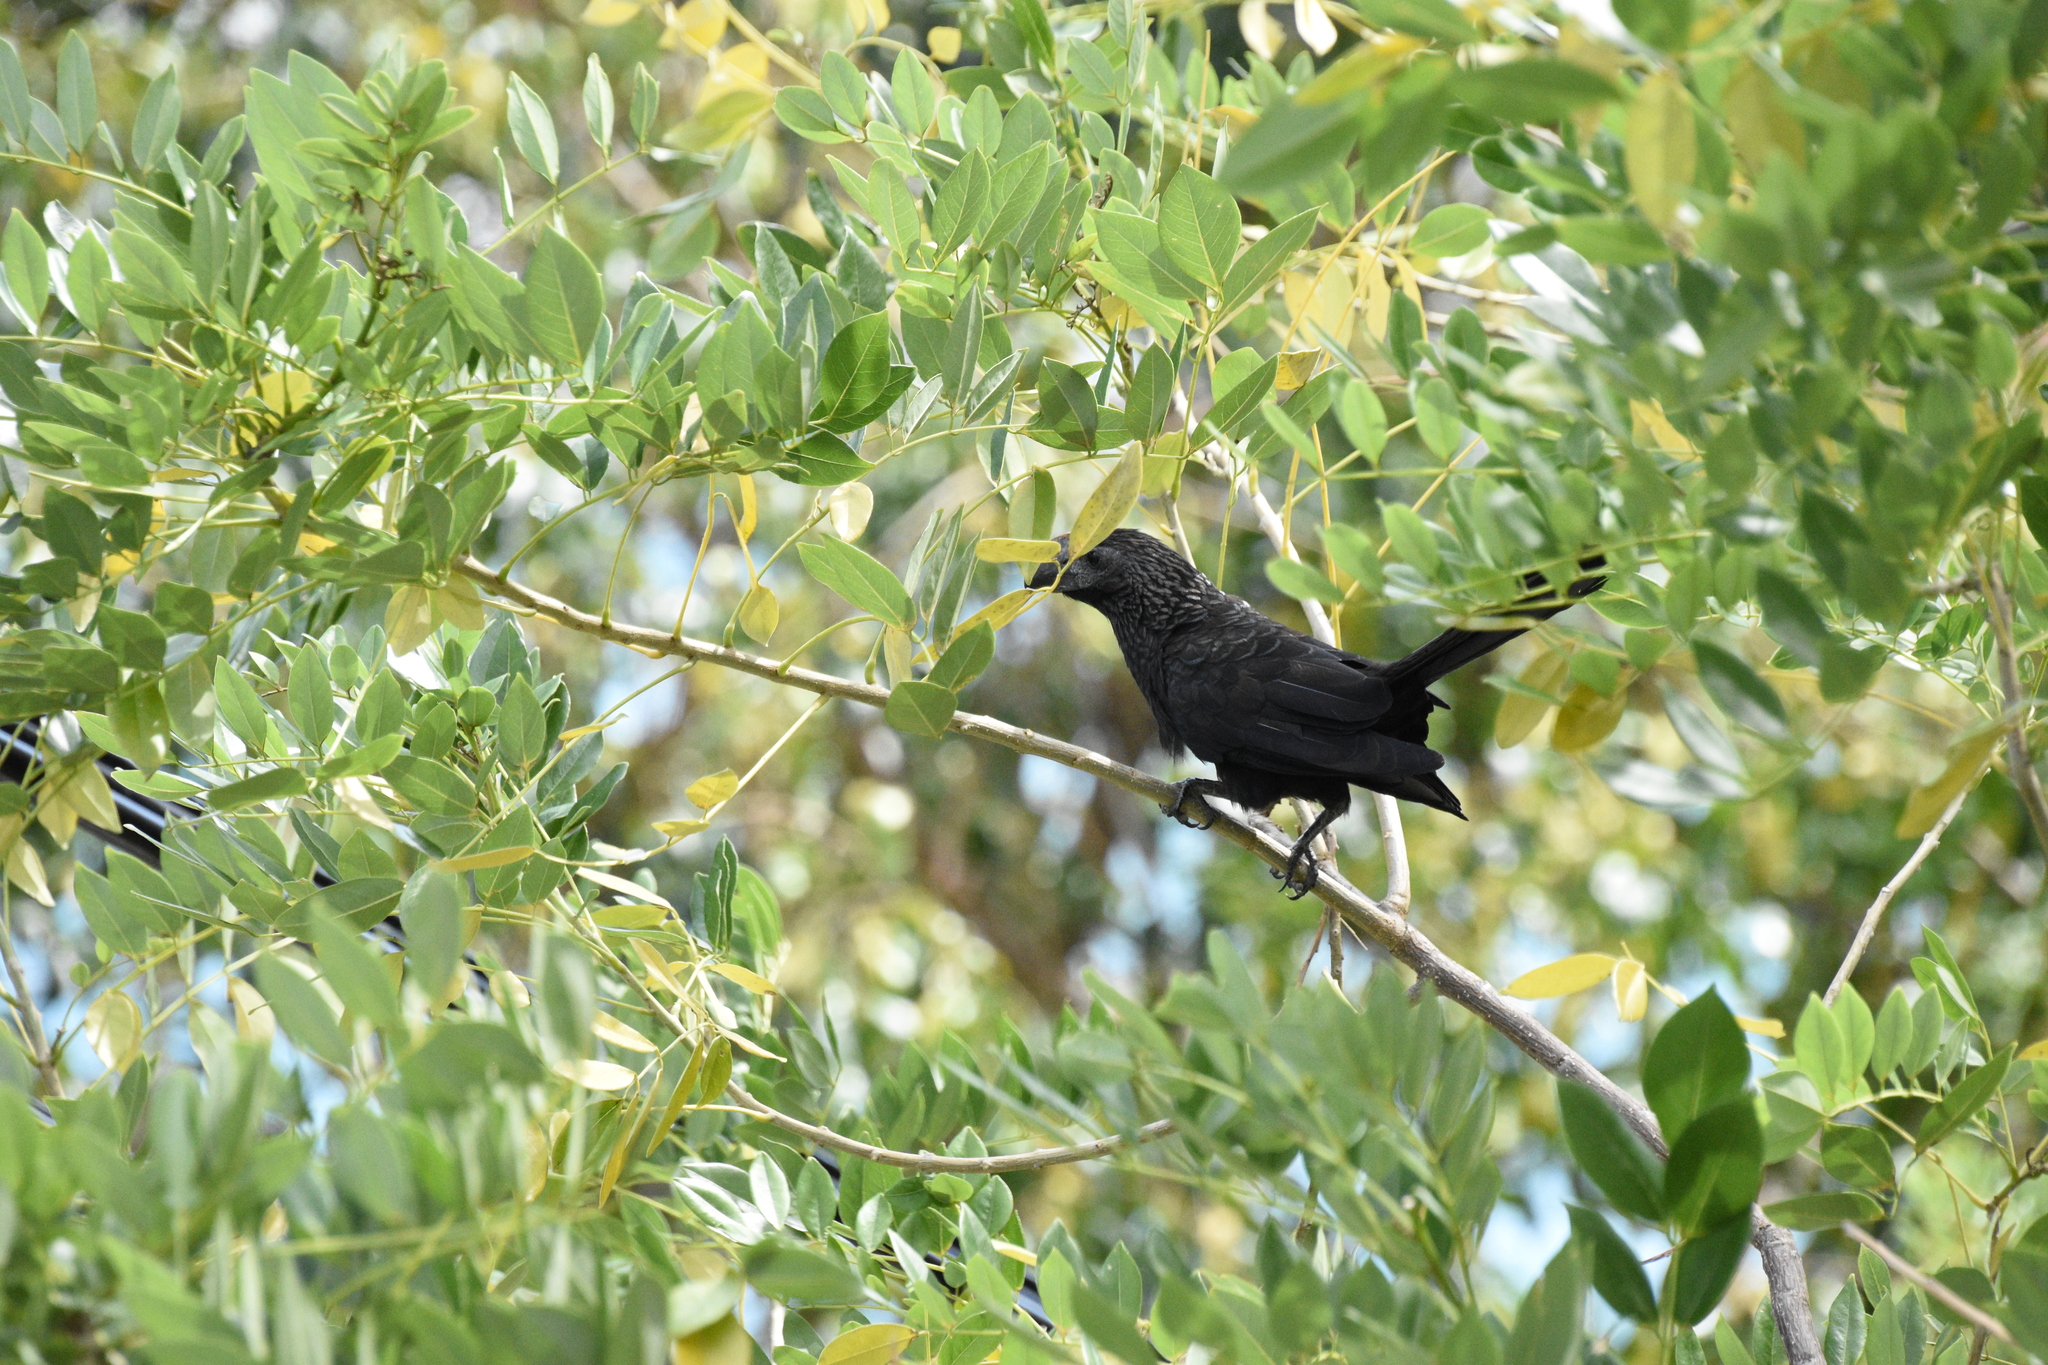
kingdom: Animalia
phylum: Chordata
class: Aves
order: Cuculiformes
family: Cuculidae
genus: Crotophaga
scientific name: Crotophaga ani
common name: Smooth-billed ani
